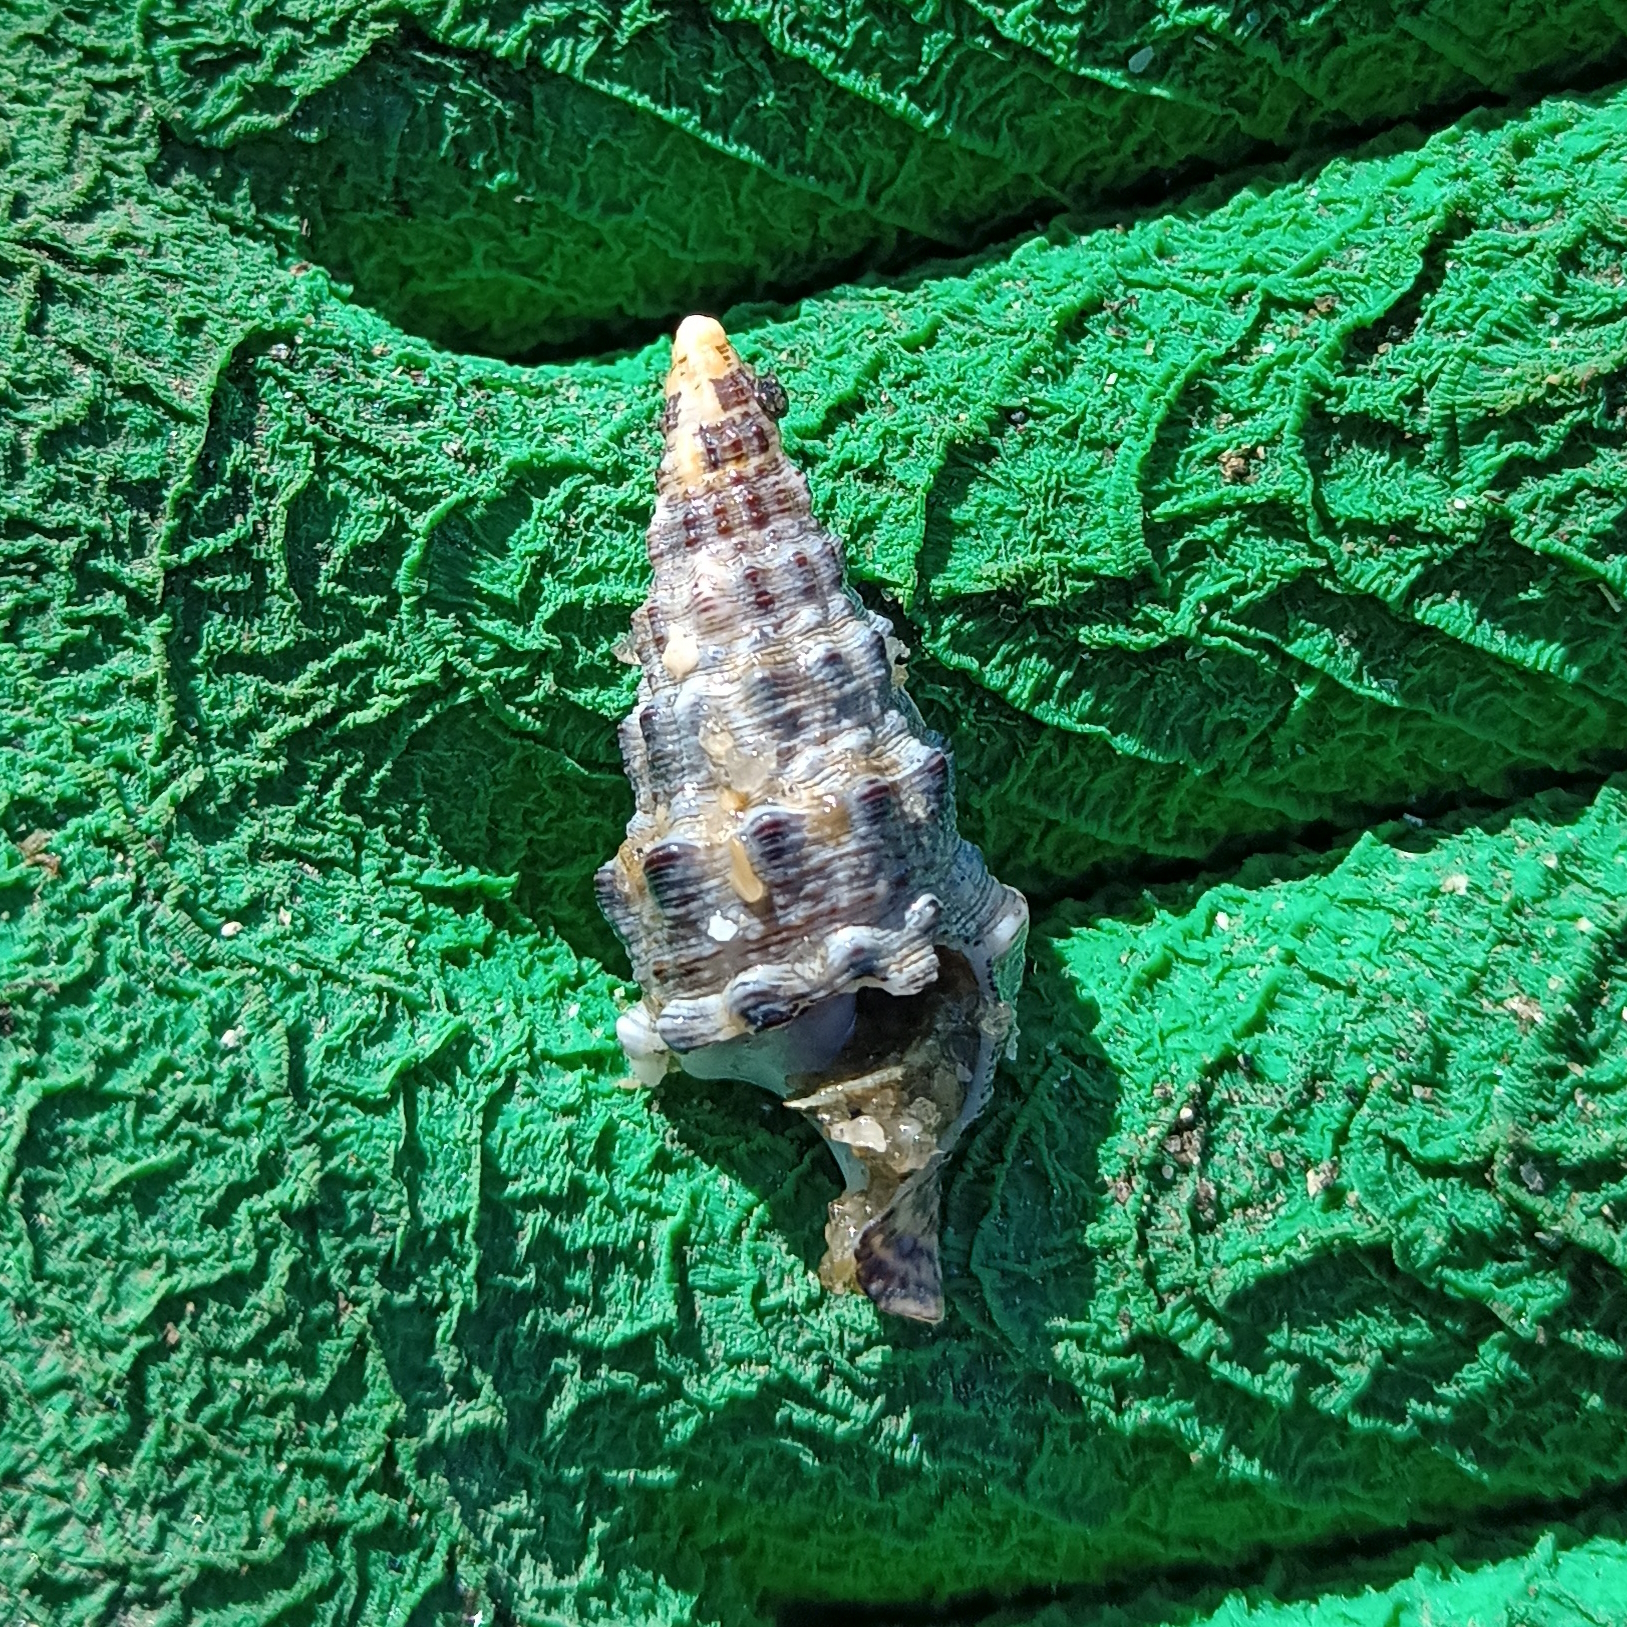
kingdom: Animalia
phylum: Mollusca
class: Gastropoda
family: Cerithiidae
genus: Cerithium
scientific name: Cerithium atratum
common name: Dark cerith
